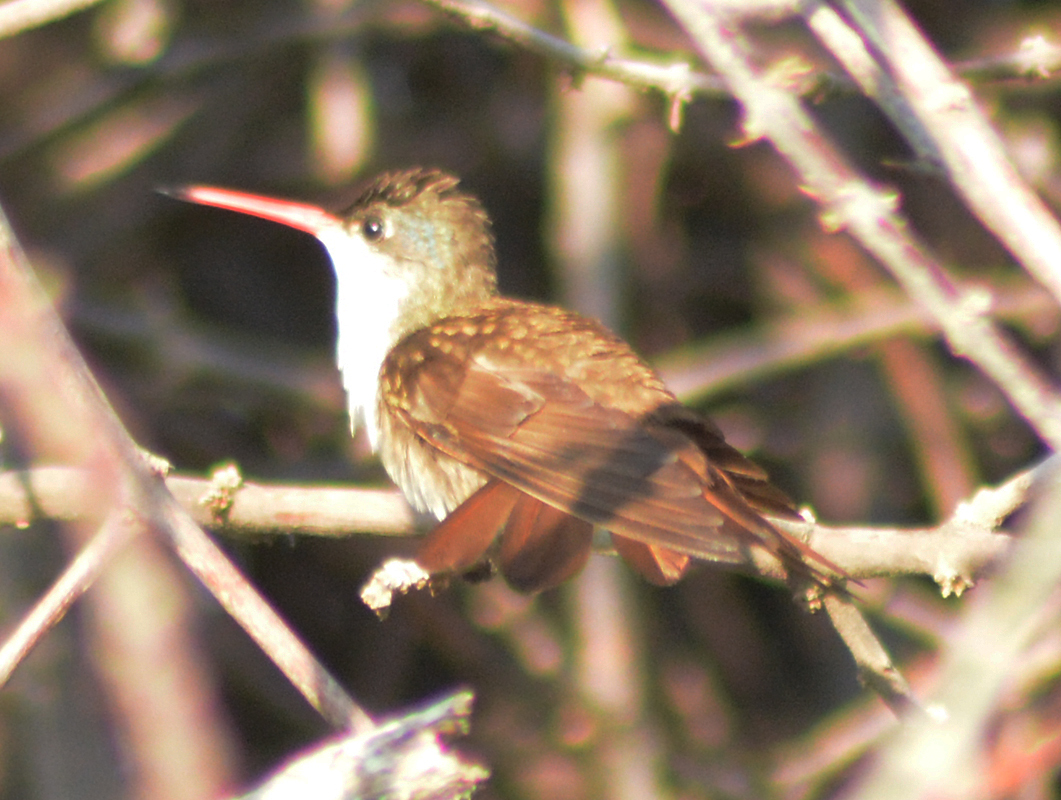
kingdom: Animalia
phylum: Chordata
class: Aves
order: Apodiformes
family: Trochilidae
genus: Leucolia
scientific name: Leucolia violiceps
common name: Violet-crowned hummingbird
